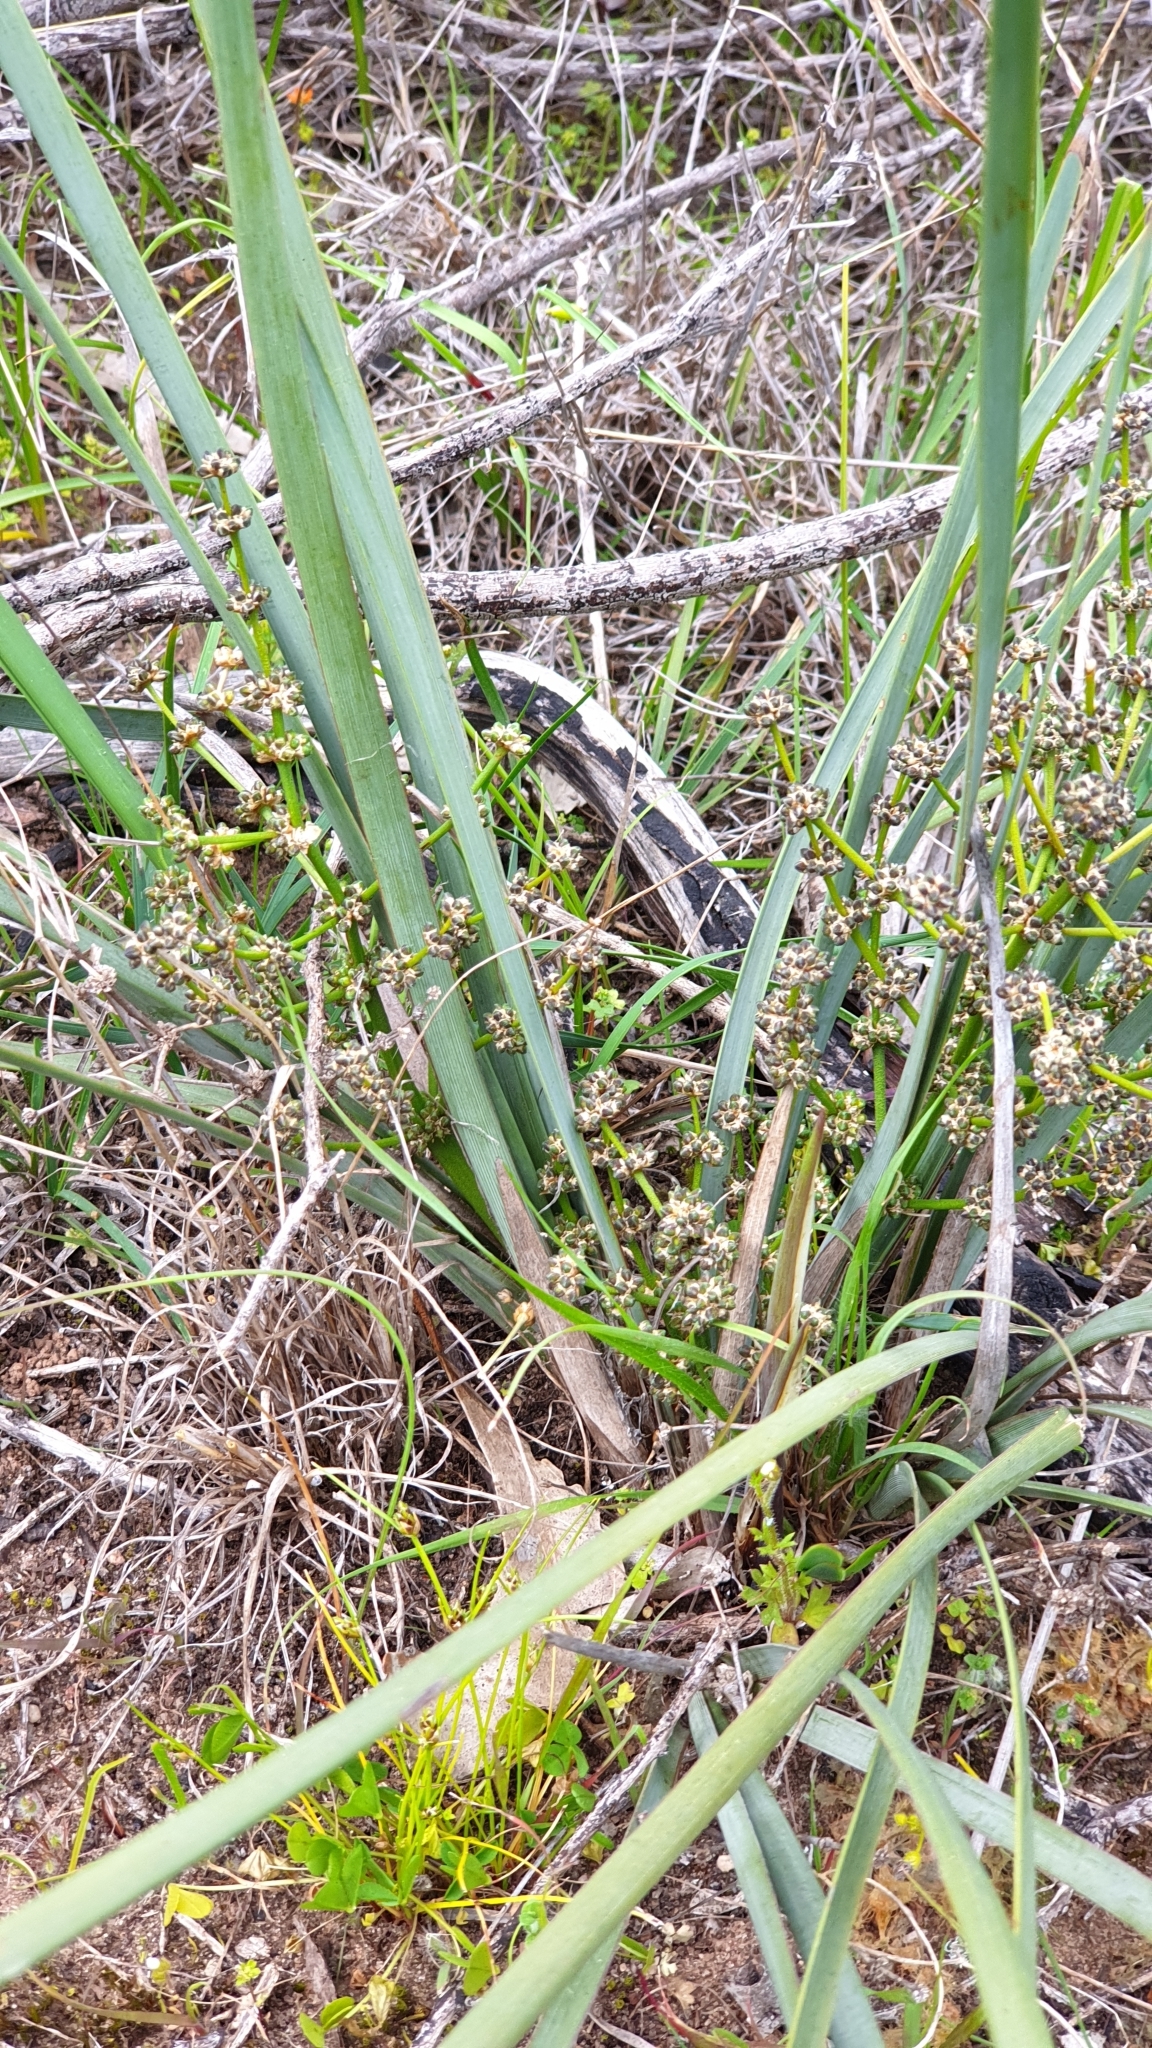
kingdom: Plantae
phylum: Tracheophyta
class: Liliopsida
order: Asparagales
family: Asparagaceae
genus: Lomandra
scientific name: Lomandra multiflora
